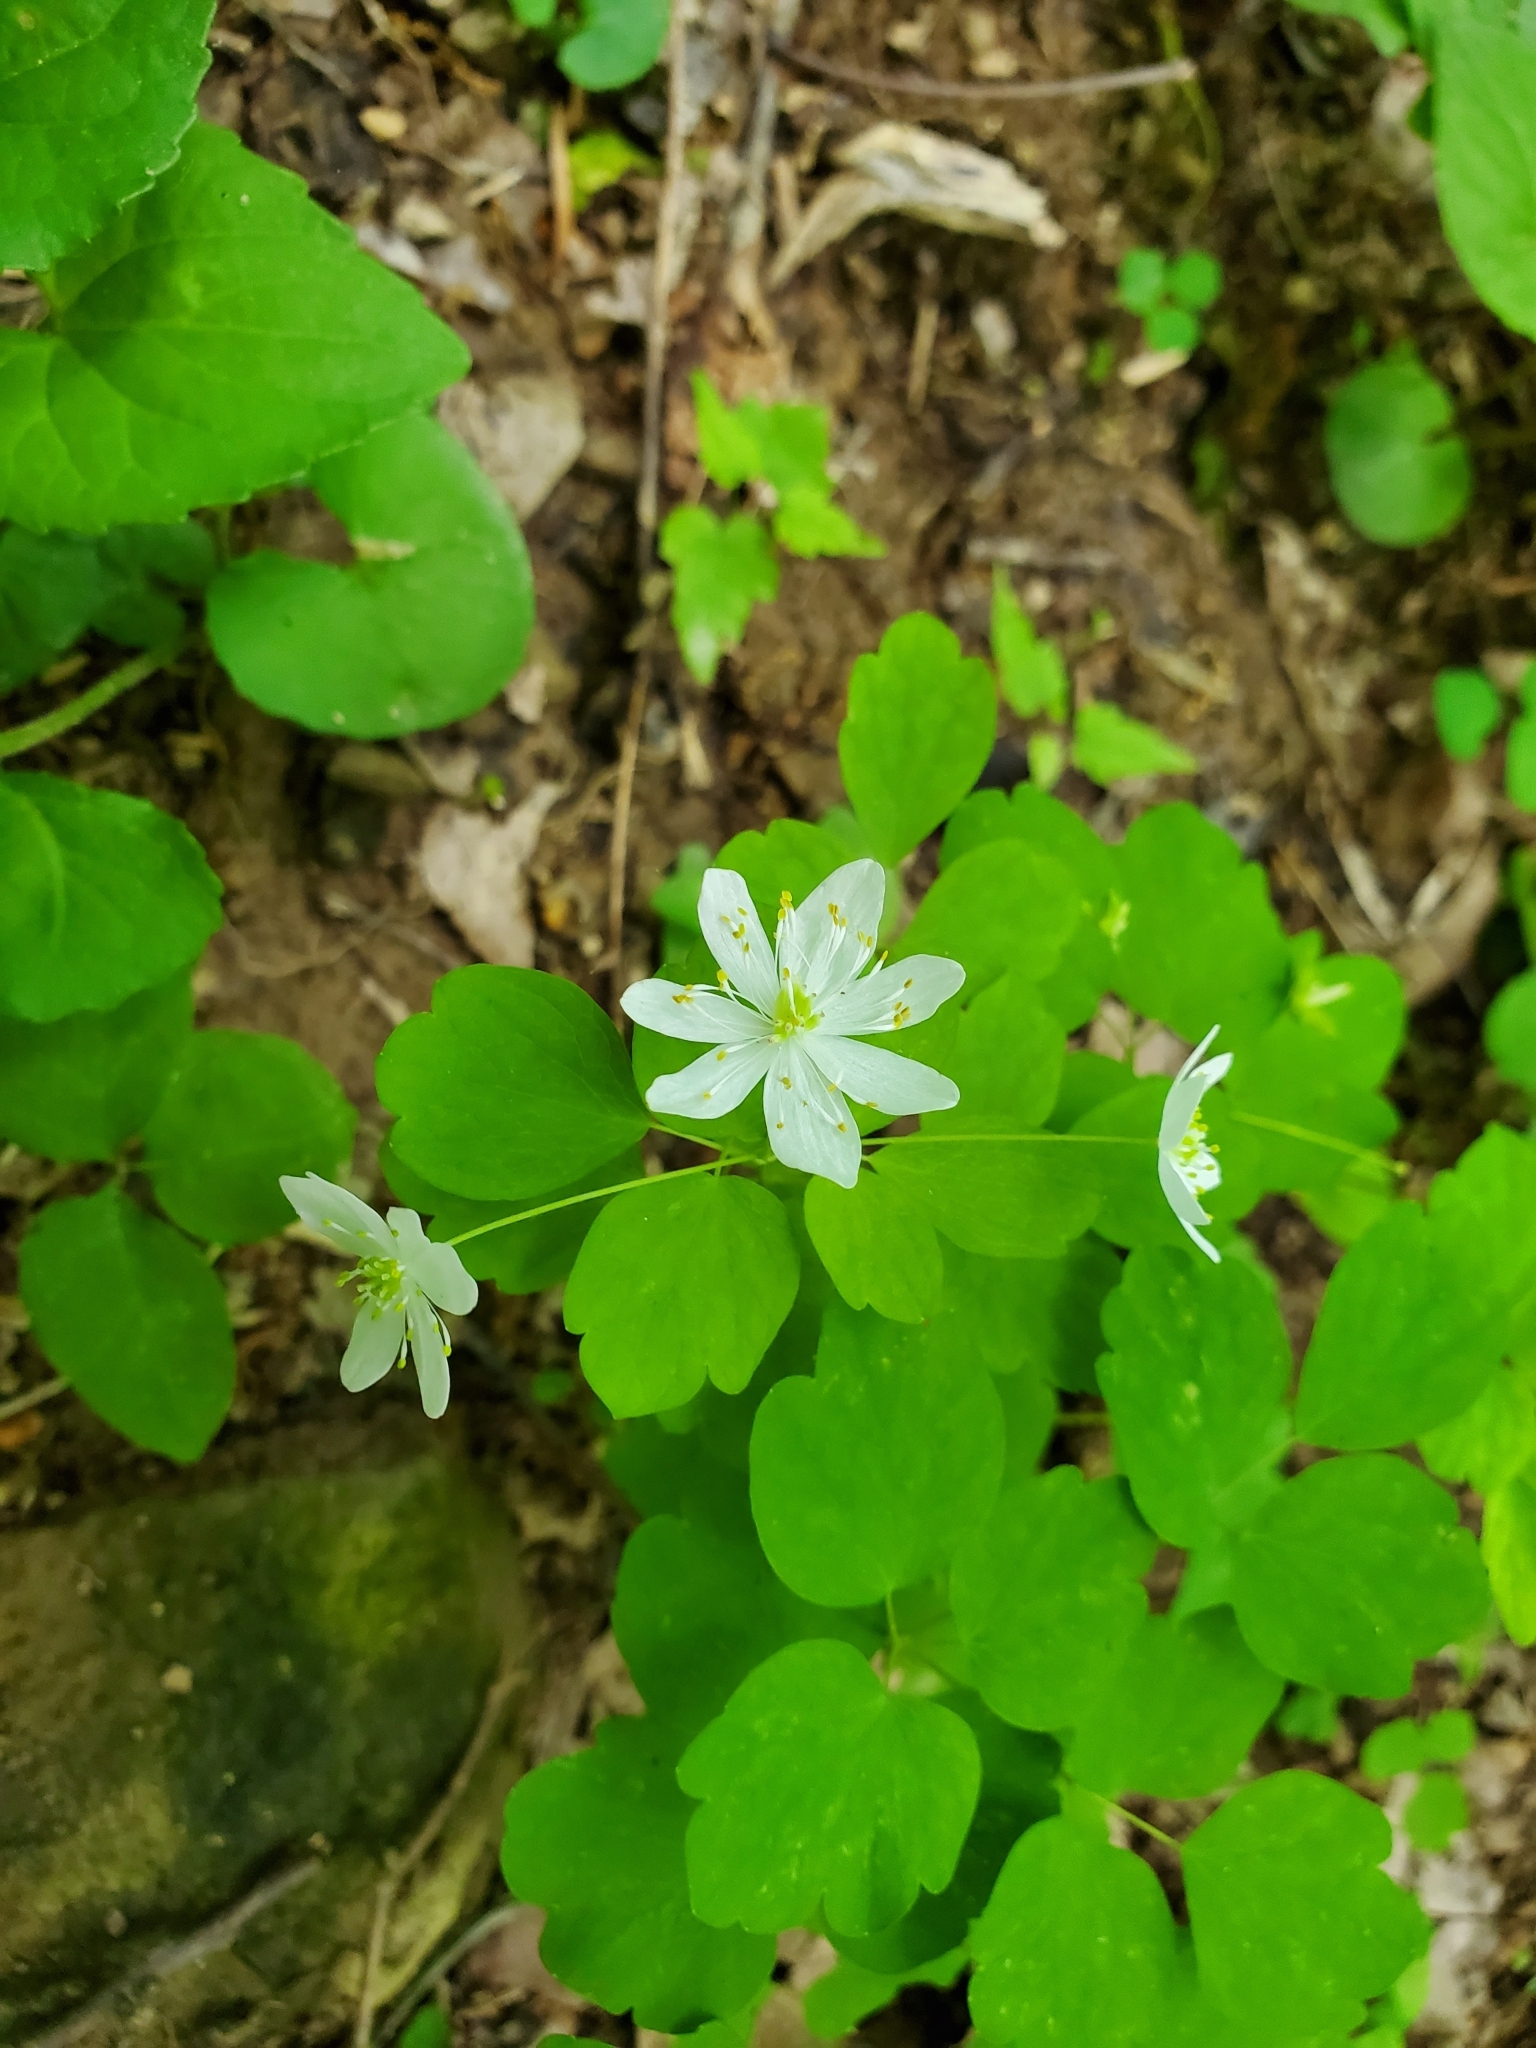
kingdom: Plantae
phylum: Tracheophyta
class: Magnoliopsida
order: Ranunculales
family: Ranunculaceae
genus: Thalictrum
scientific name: Thalictrum thalictroides
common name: Rue-anemone
